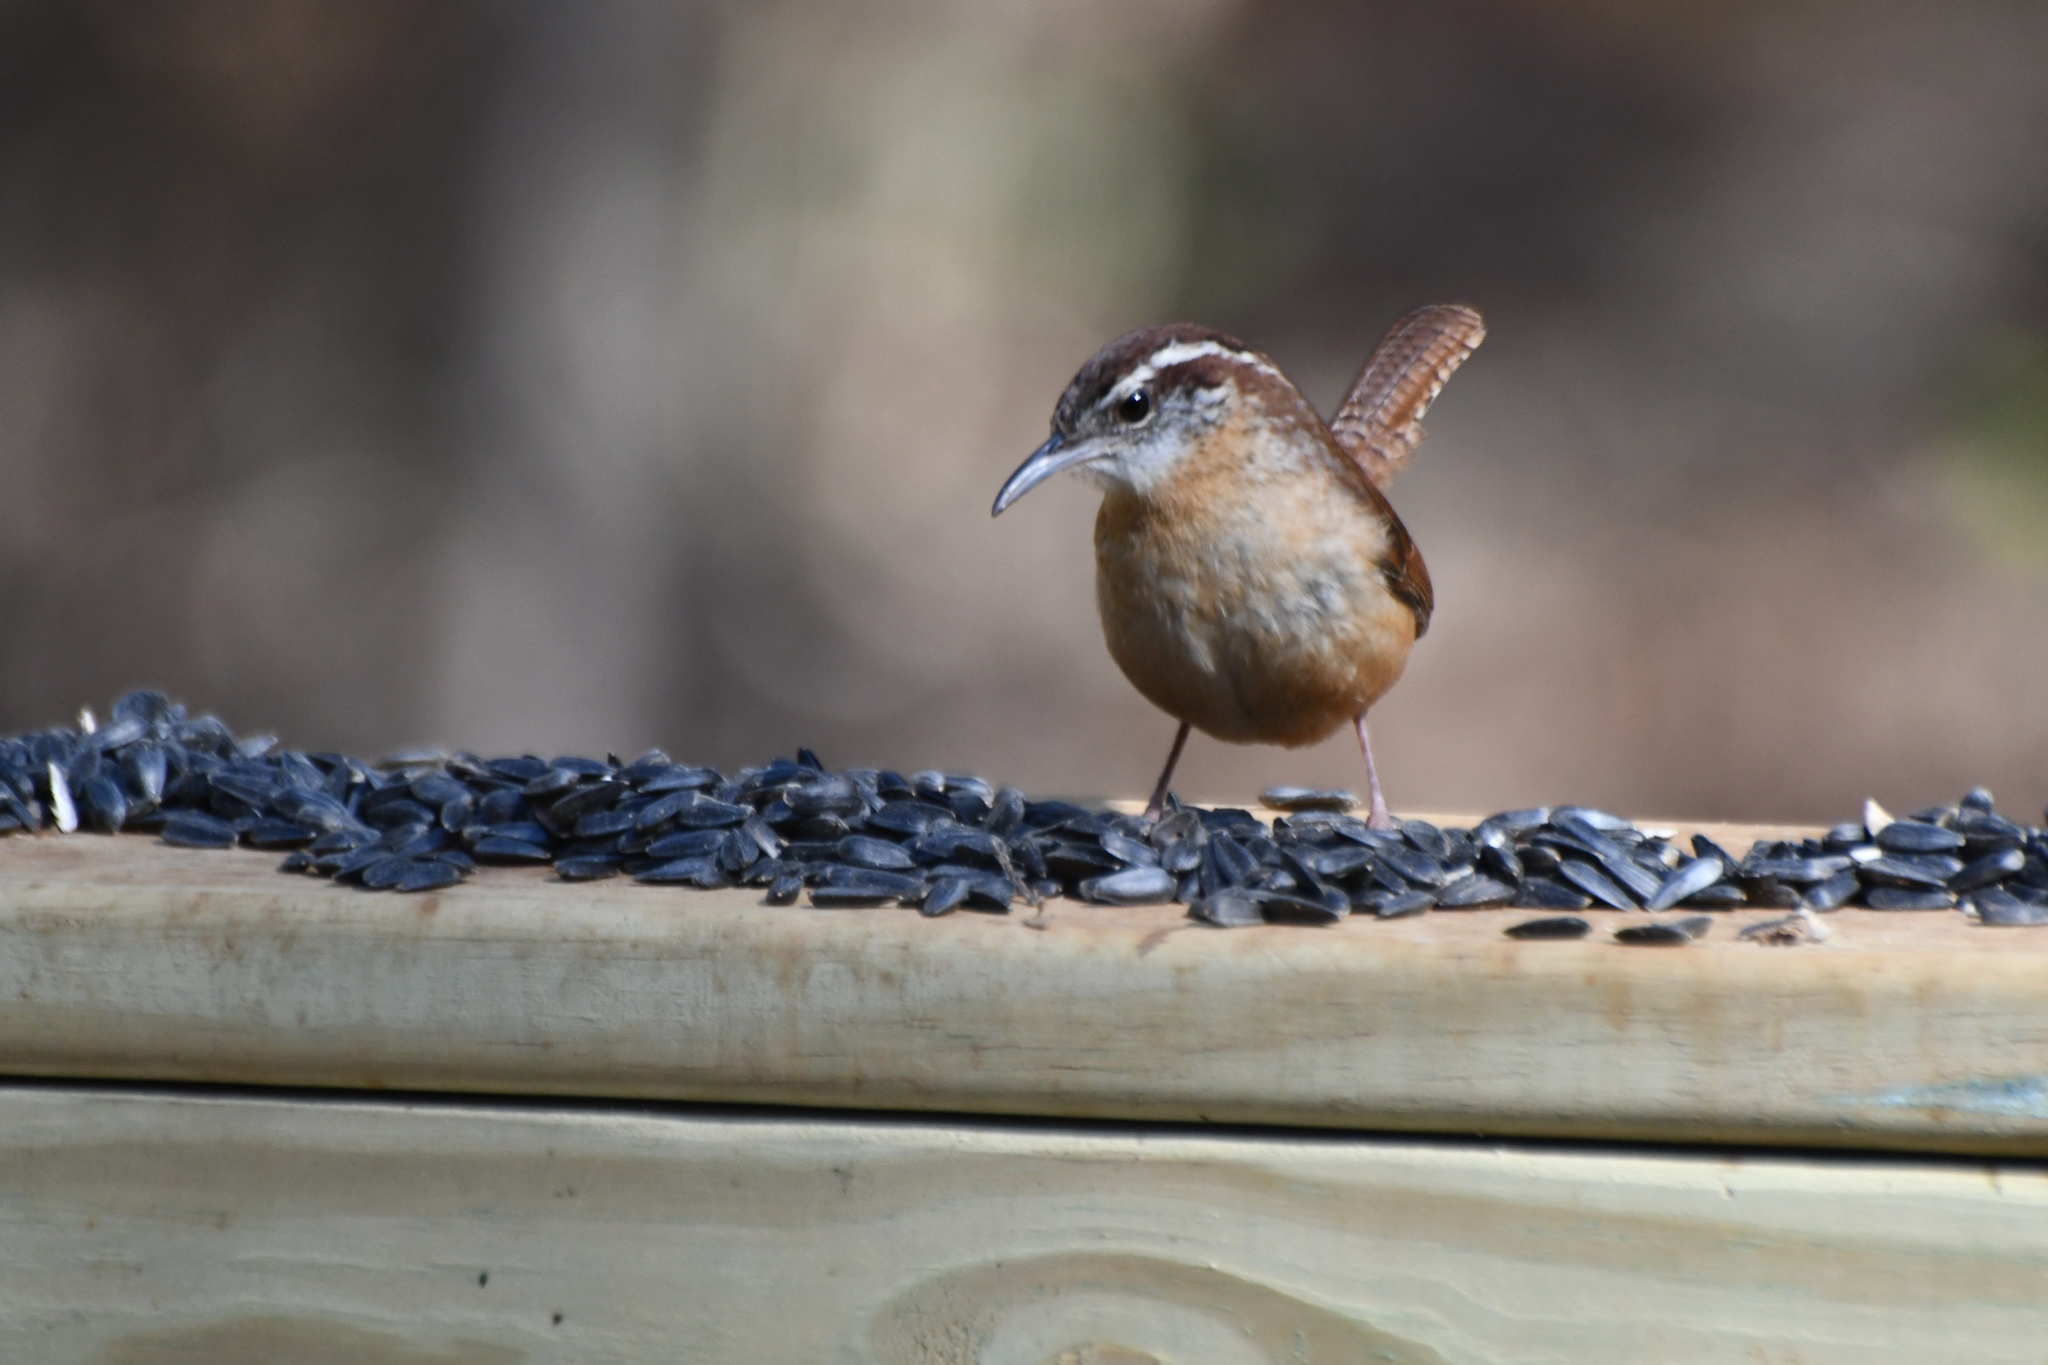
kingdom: Animalia
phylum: Chordata
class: Aves
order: Passeriformes
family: Troglodytidae
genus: Thryothorus
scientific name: Thryothorus ludovicianus
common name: Carolina wren
